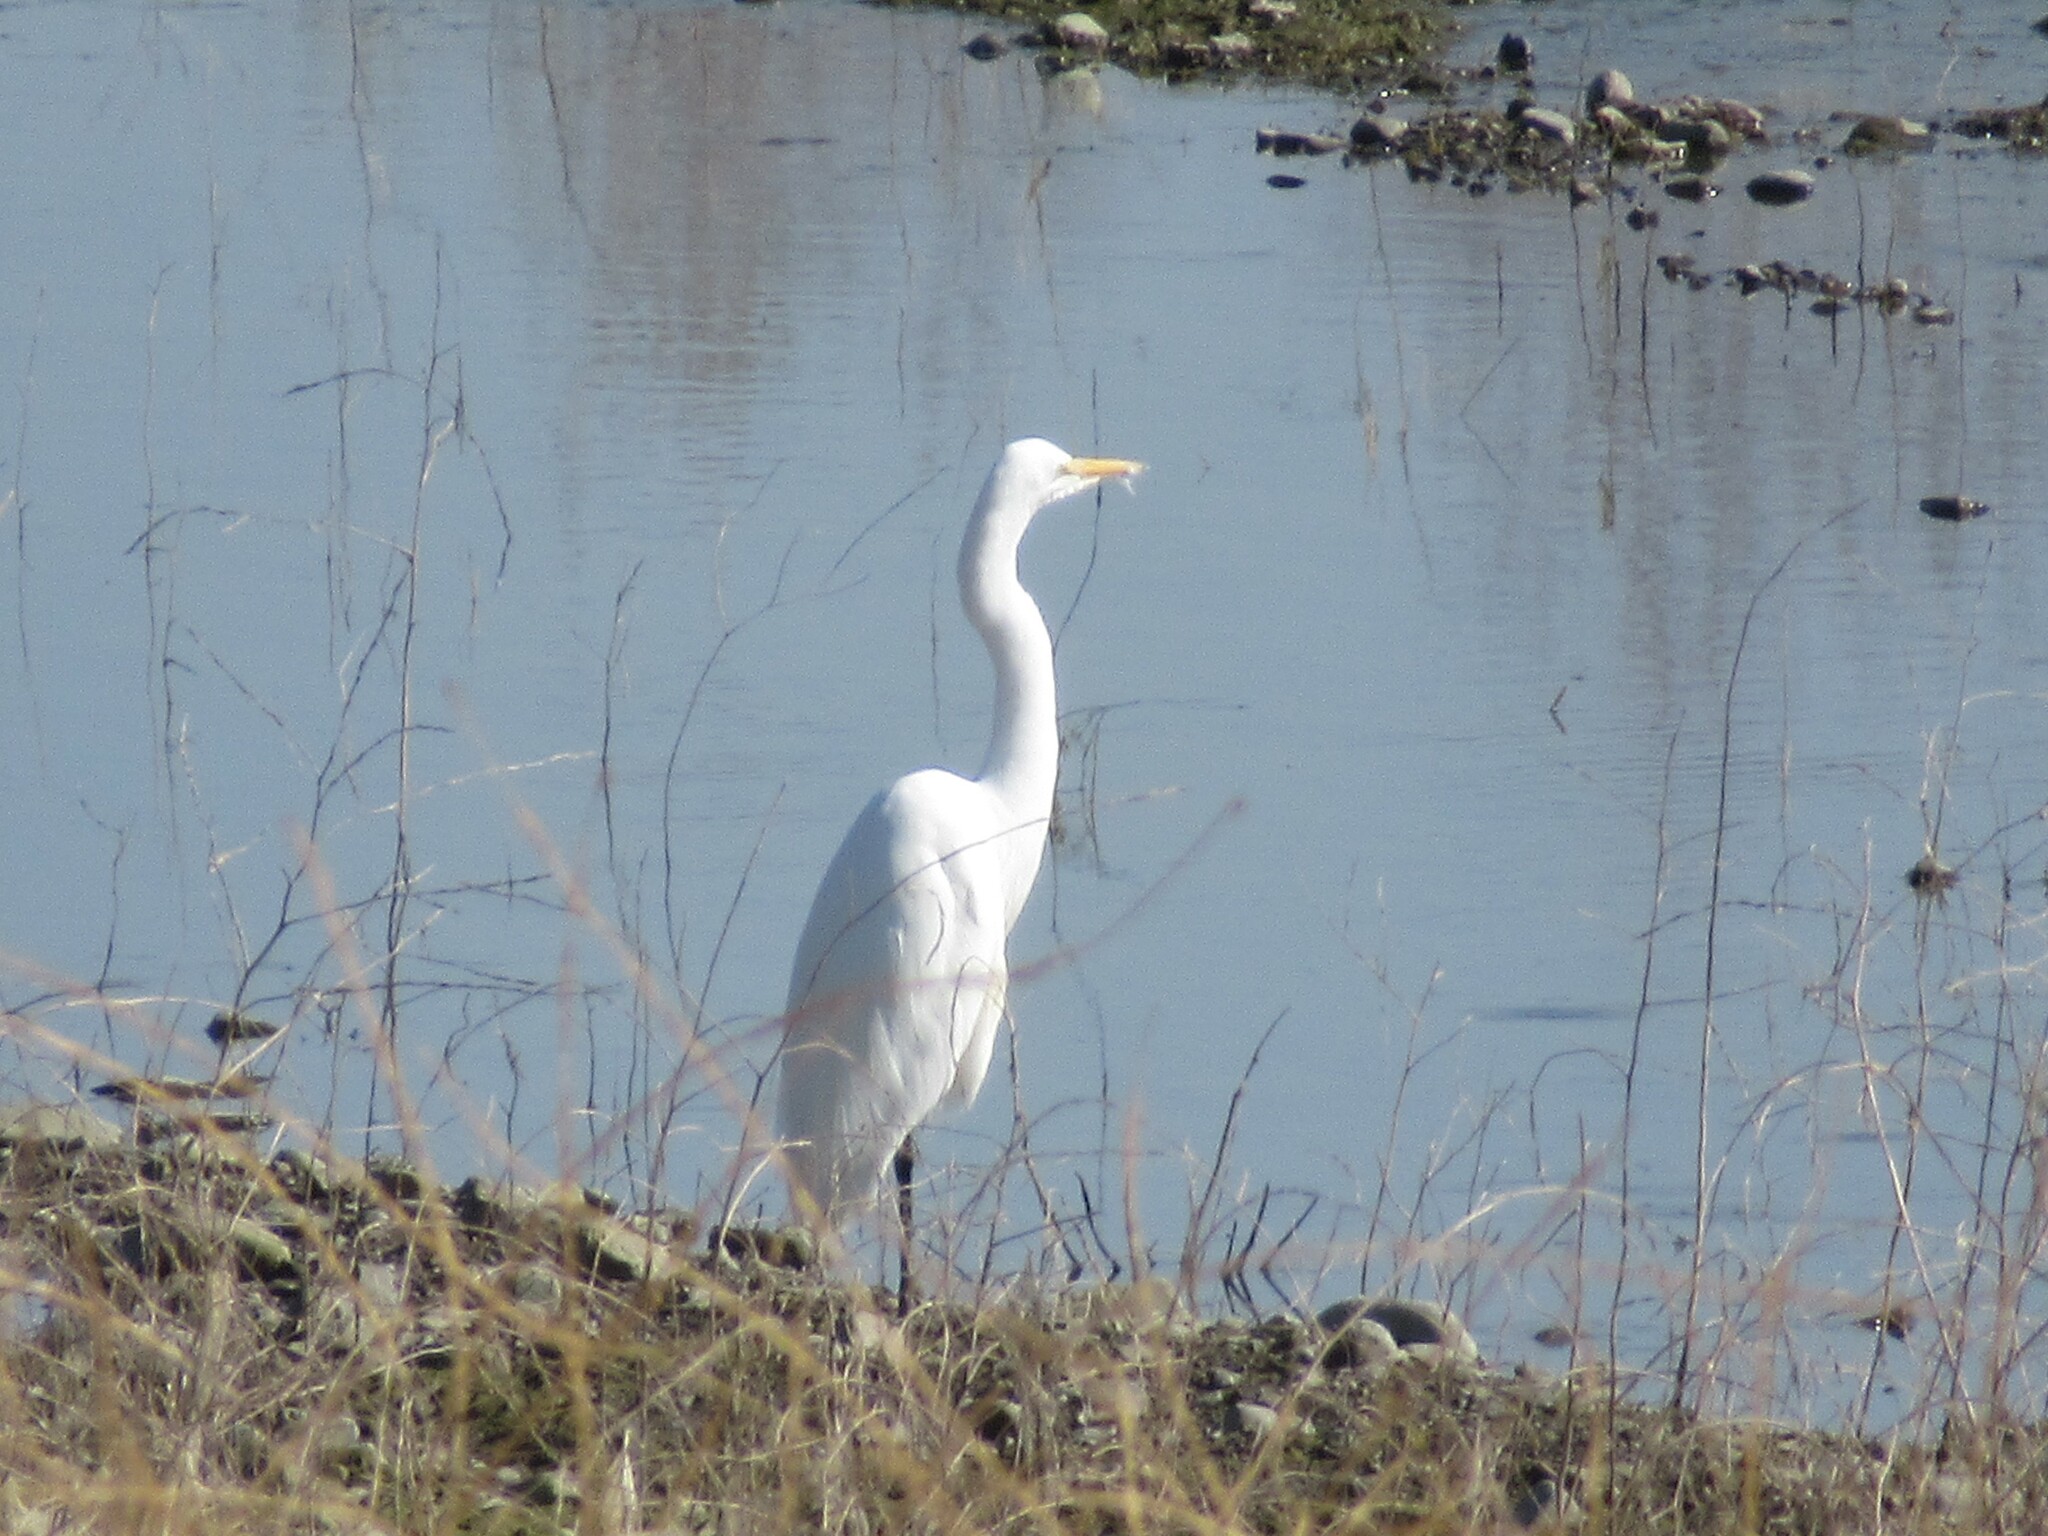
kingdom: Animalia
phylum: Chordata
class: Aves
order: Pelecaniformes
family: Ardeidae
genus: Ardea
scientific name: Ardea alba
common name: Great egret
